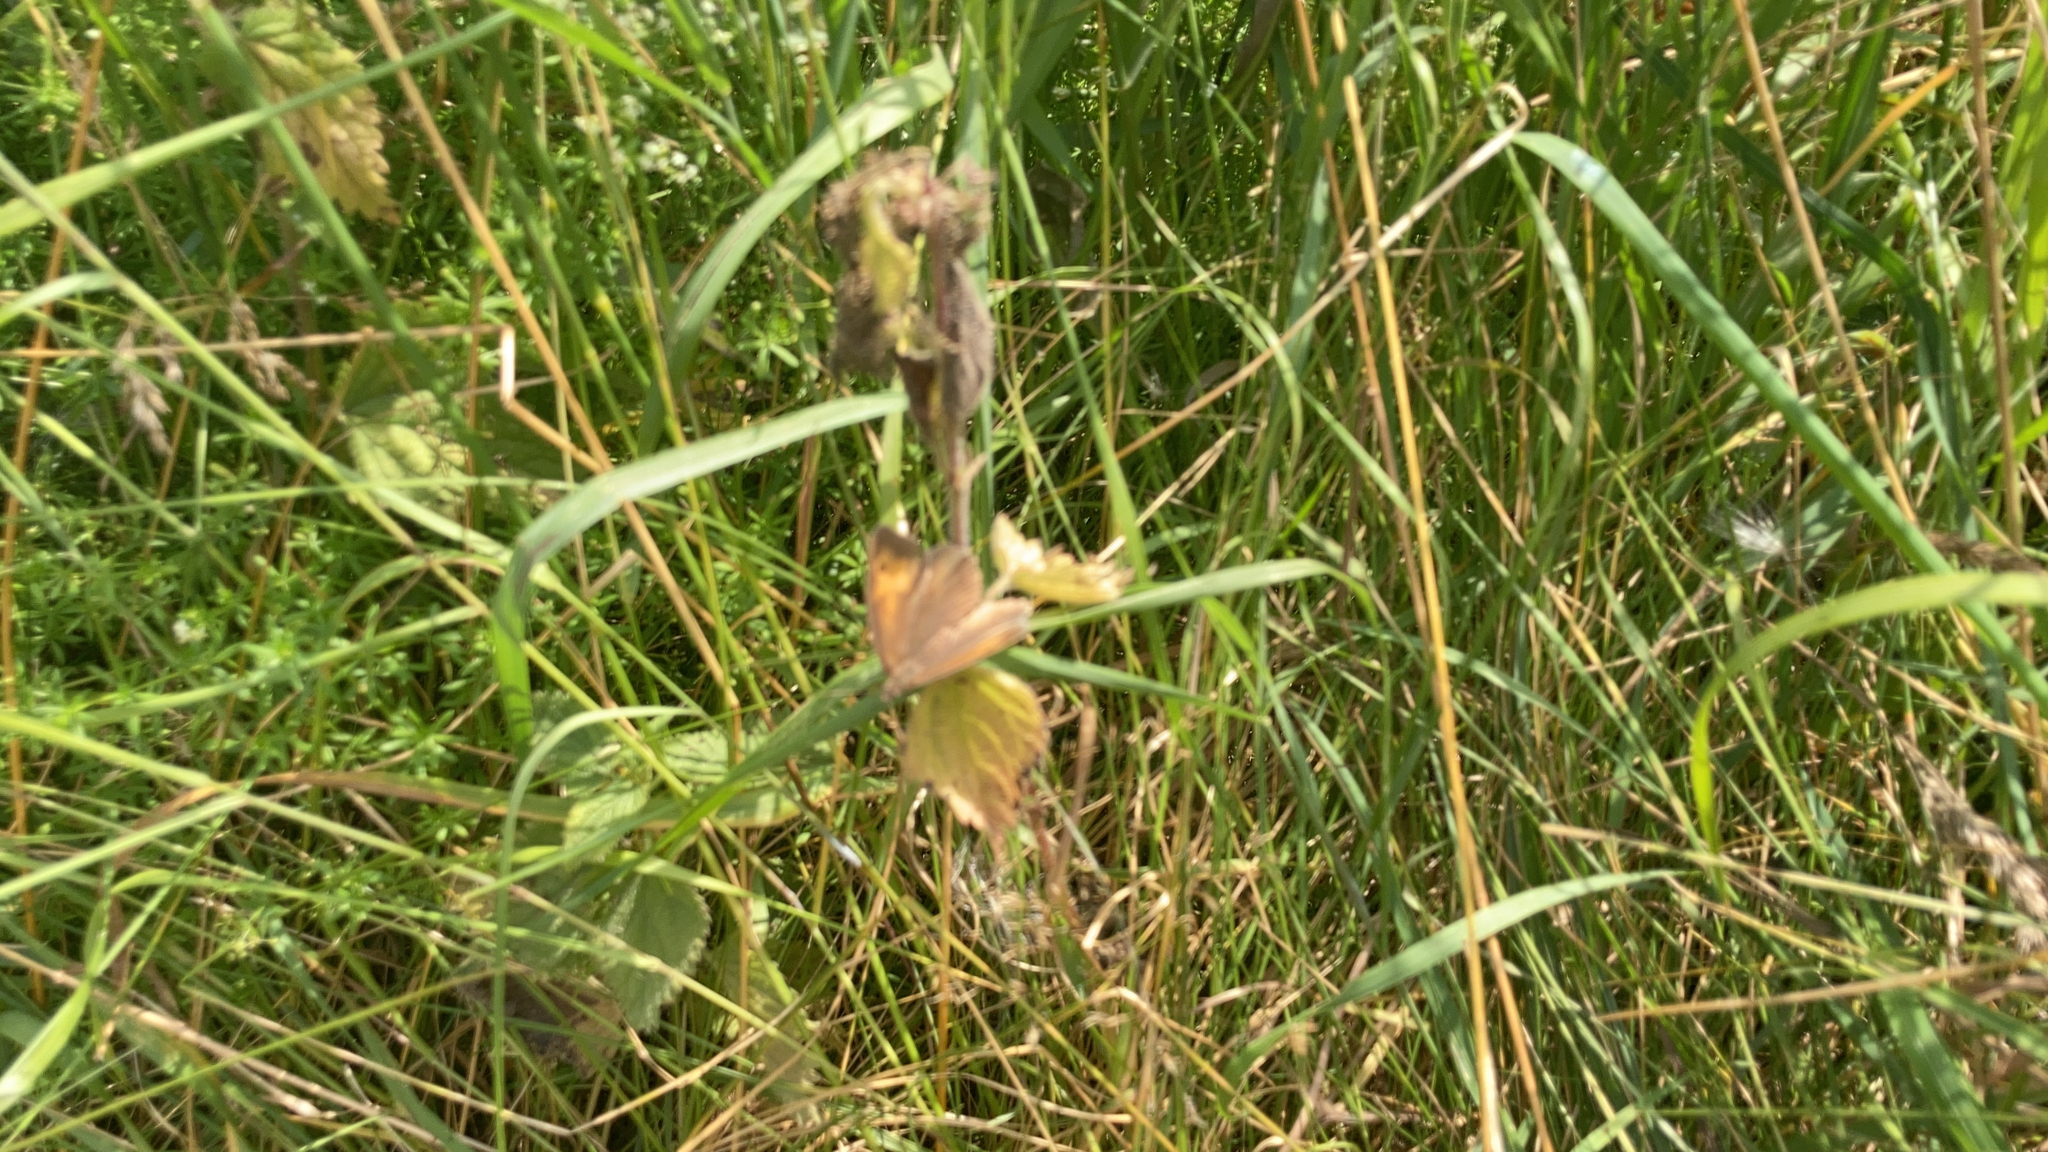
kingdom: Animalia
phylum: Arthropoda
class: Insecta
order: Lepidoptera
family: Nymphalidae
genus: Maniola
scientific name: Maniola jurtina
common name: Meadow brown
